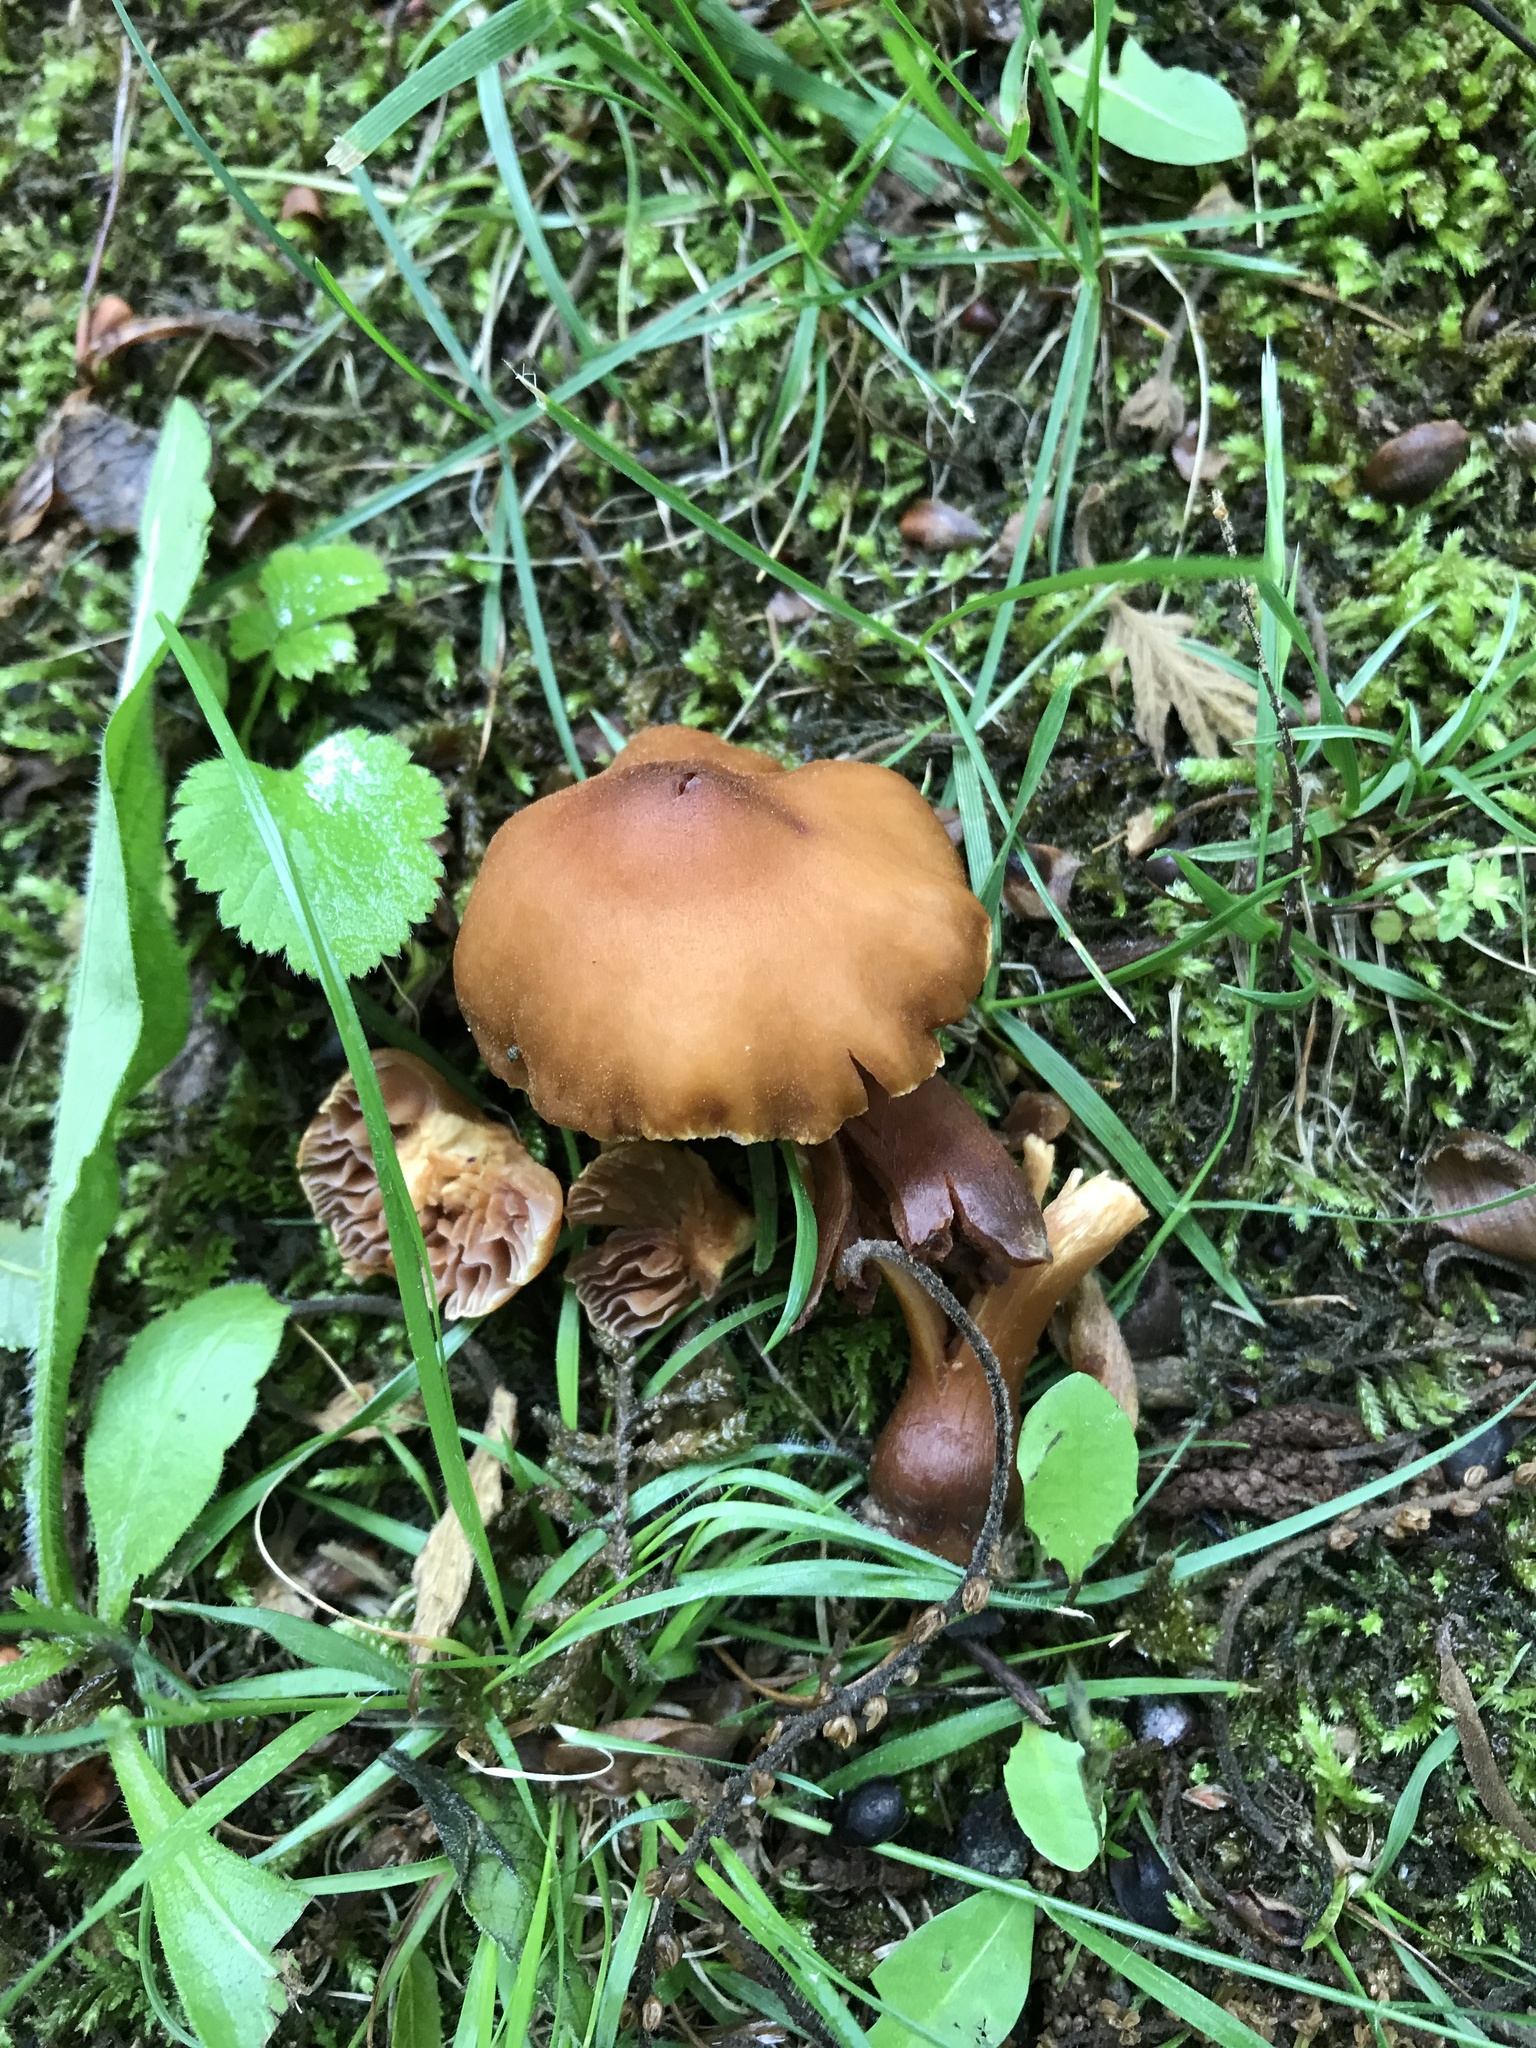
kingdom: Fungi
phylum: Basidiomycota
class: Agaricomycetes
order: Agaricales
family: Cortinariaceae
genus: Cortinarius
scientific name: Cortinarius
